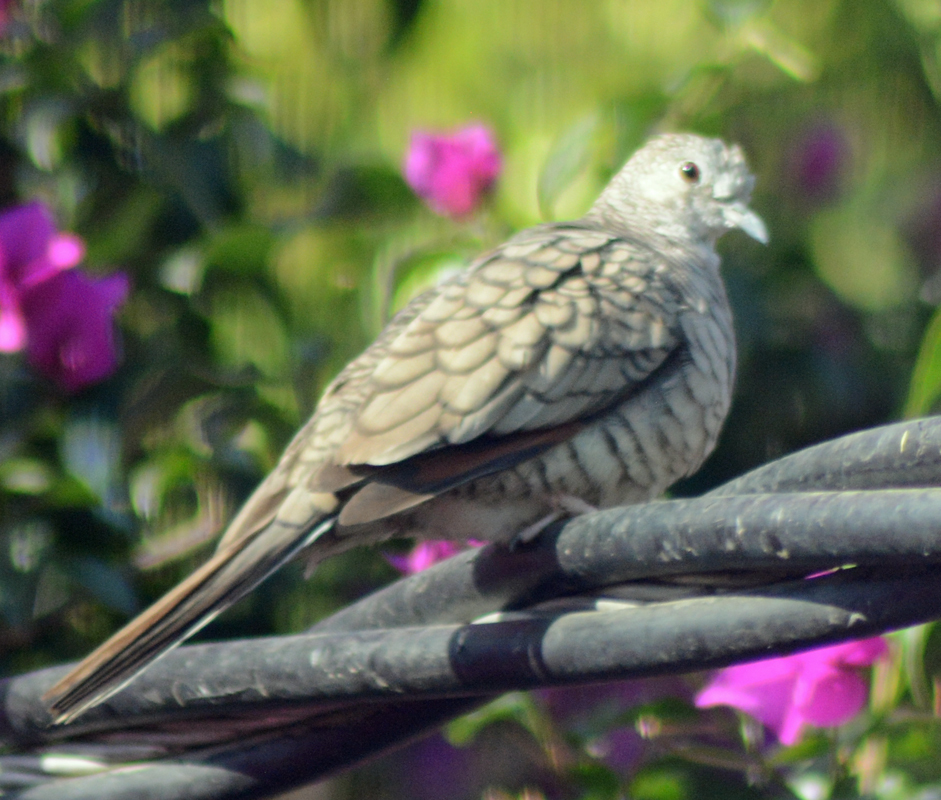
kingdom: Animalia
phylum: Chordata
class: Aves
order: Columbiformes
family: Columbidae
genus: Columbina
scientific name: Columbina inca
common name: Inca dove
